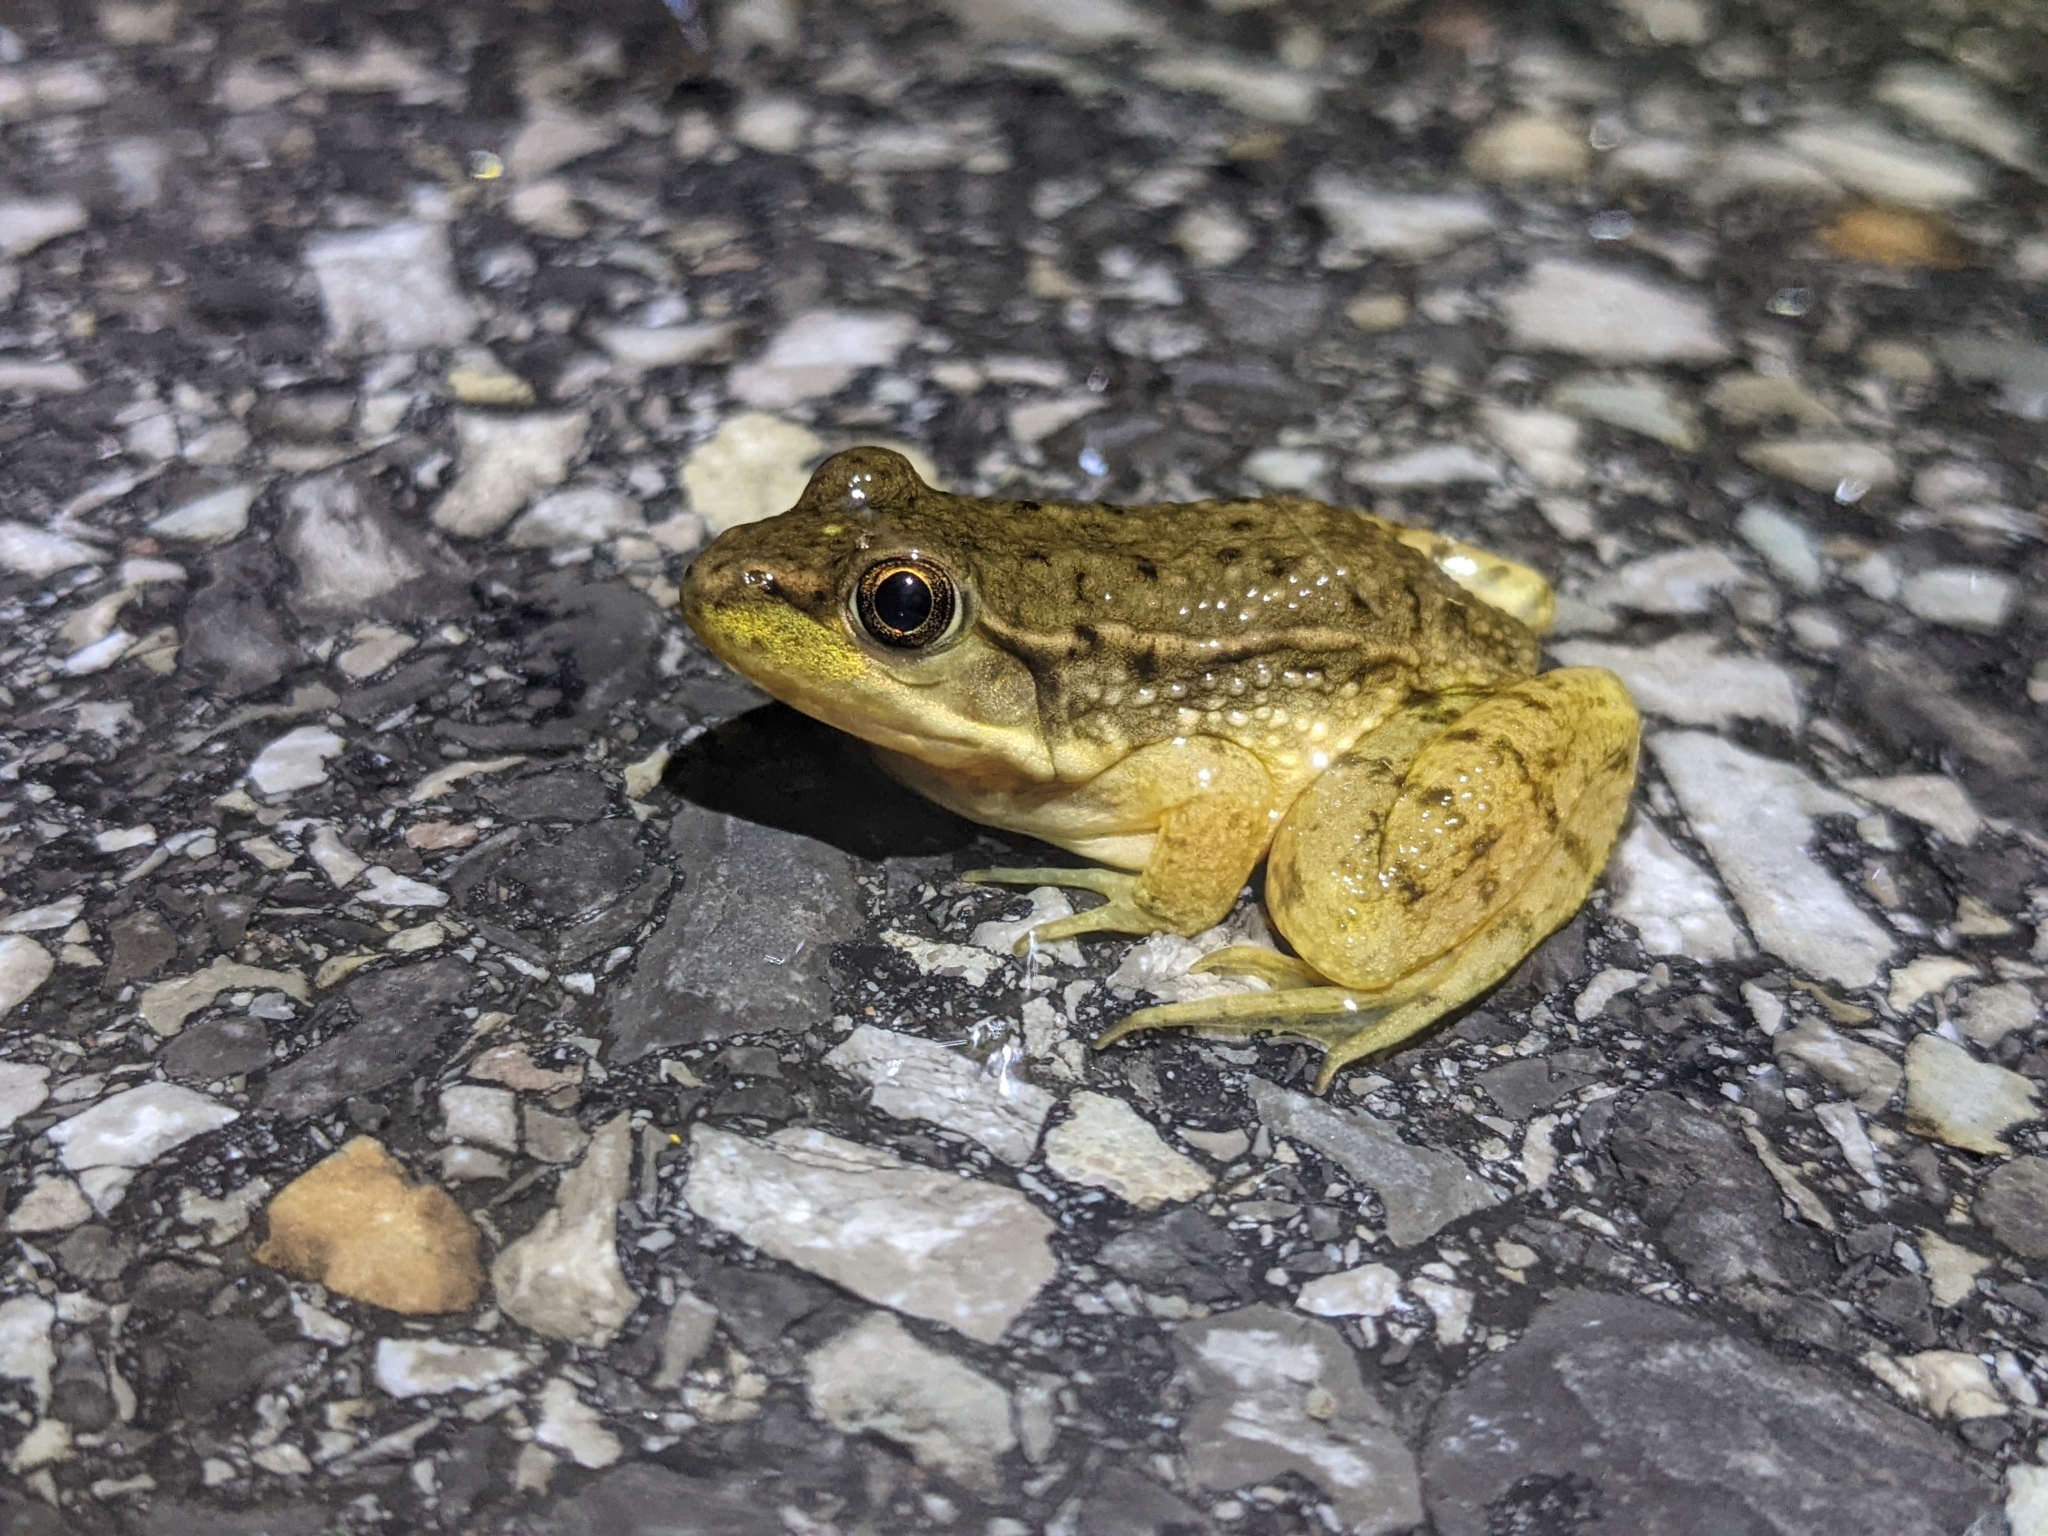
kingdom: Animalia
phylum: Chordata
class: Amphibia
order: Anura
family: Ranidae
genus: Lithobates
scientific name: Lithobates clamitans
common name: Green frog
